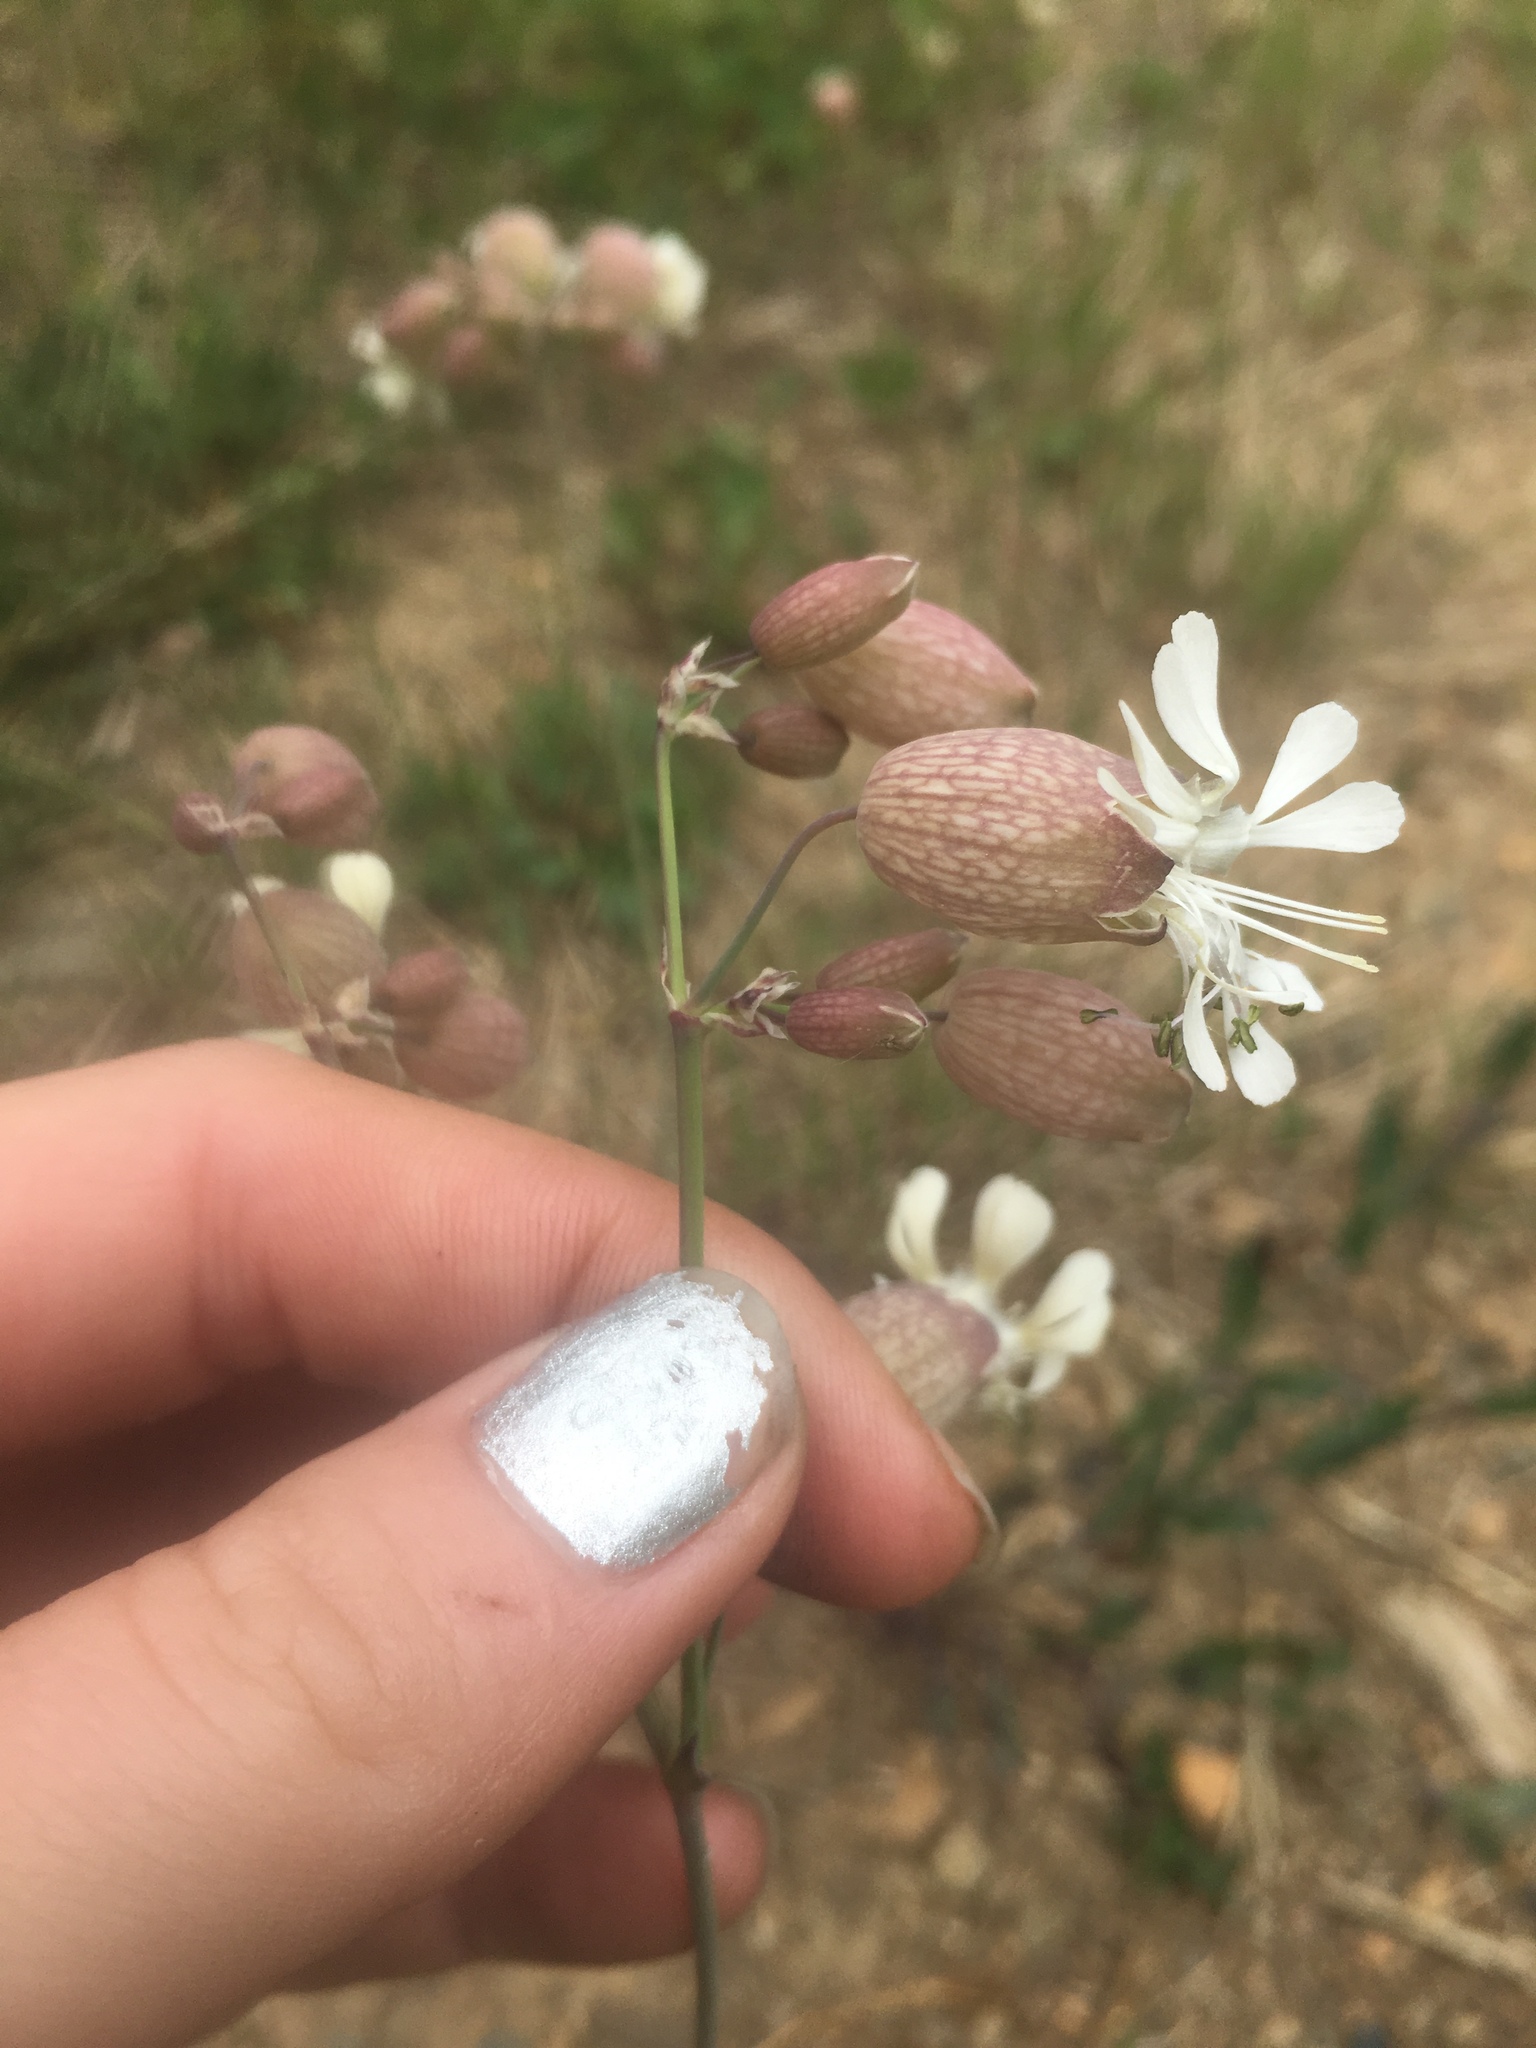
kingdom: Plantae
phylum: Tracheophyta
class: Magnoliopsida
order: Caryophyllales
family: Caryophyllaceae
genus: Silene
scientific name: Silene vulgaris
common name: Bladder campion
